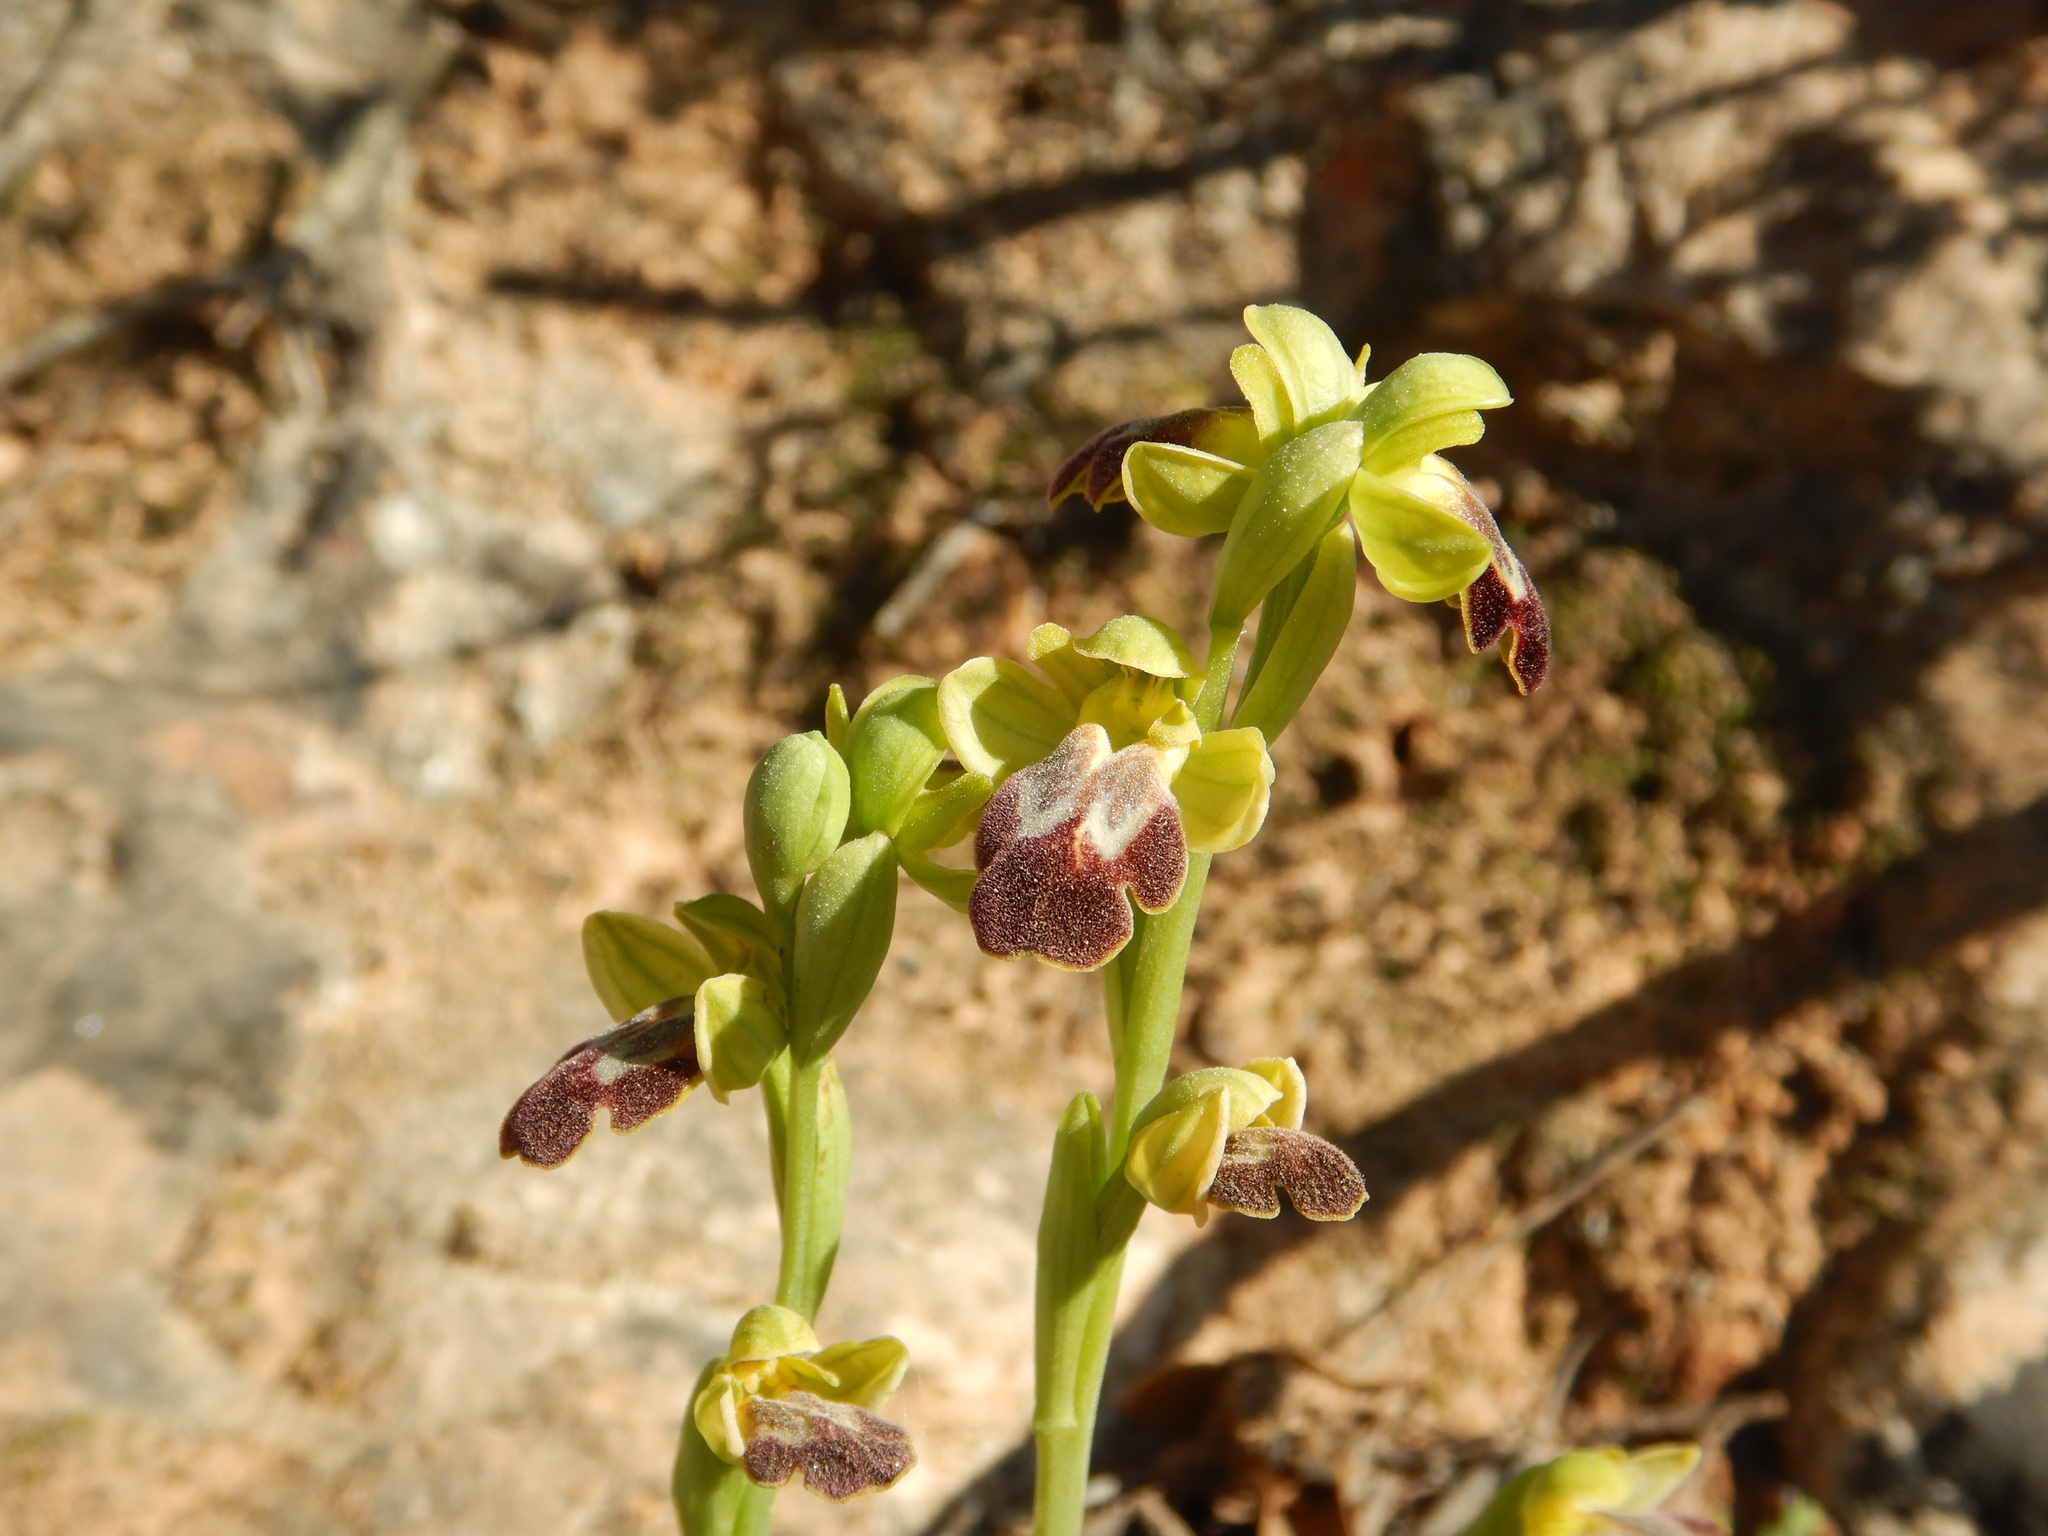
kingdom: Plantae
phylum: Tracheophyta
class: Liliopsida
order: Asparagales
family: Orchidaceae
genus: Ophrys
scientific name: Ophrys fusca
